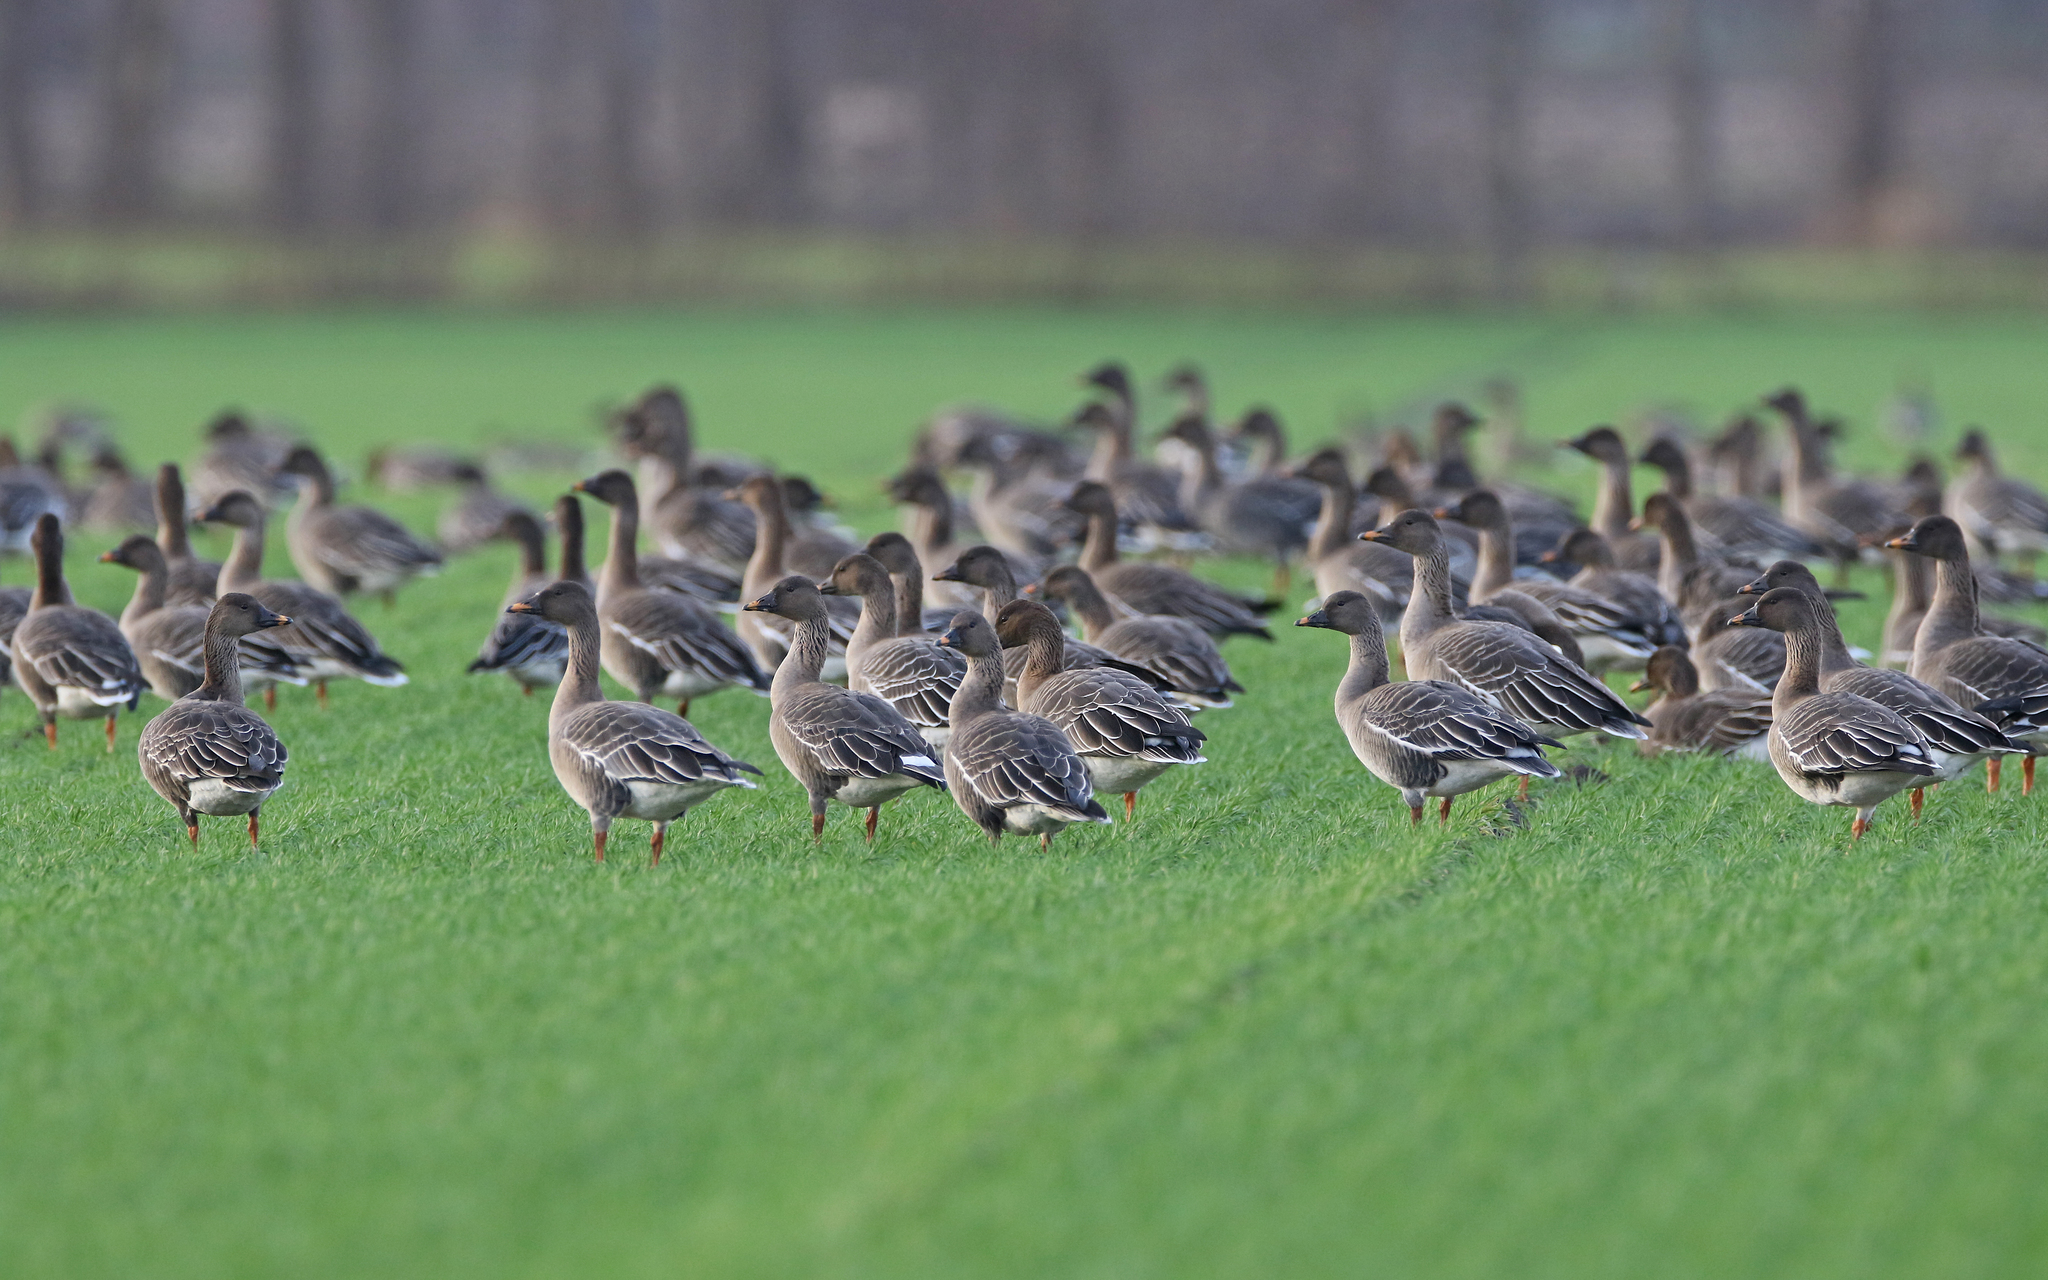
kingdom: Animalia
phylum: Chordata
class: Aves
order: Anseriformes
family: Anatidae
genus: Anser
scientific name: Anser serrirostris
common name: Tundra bean goose
